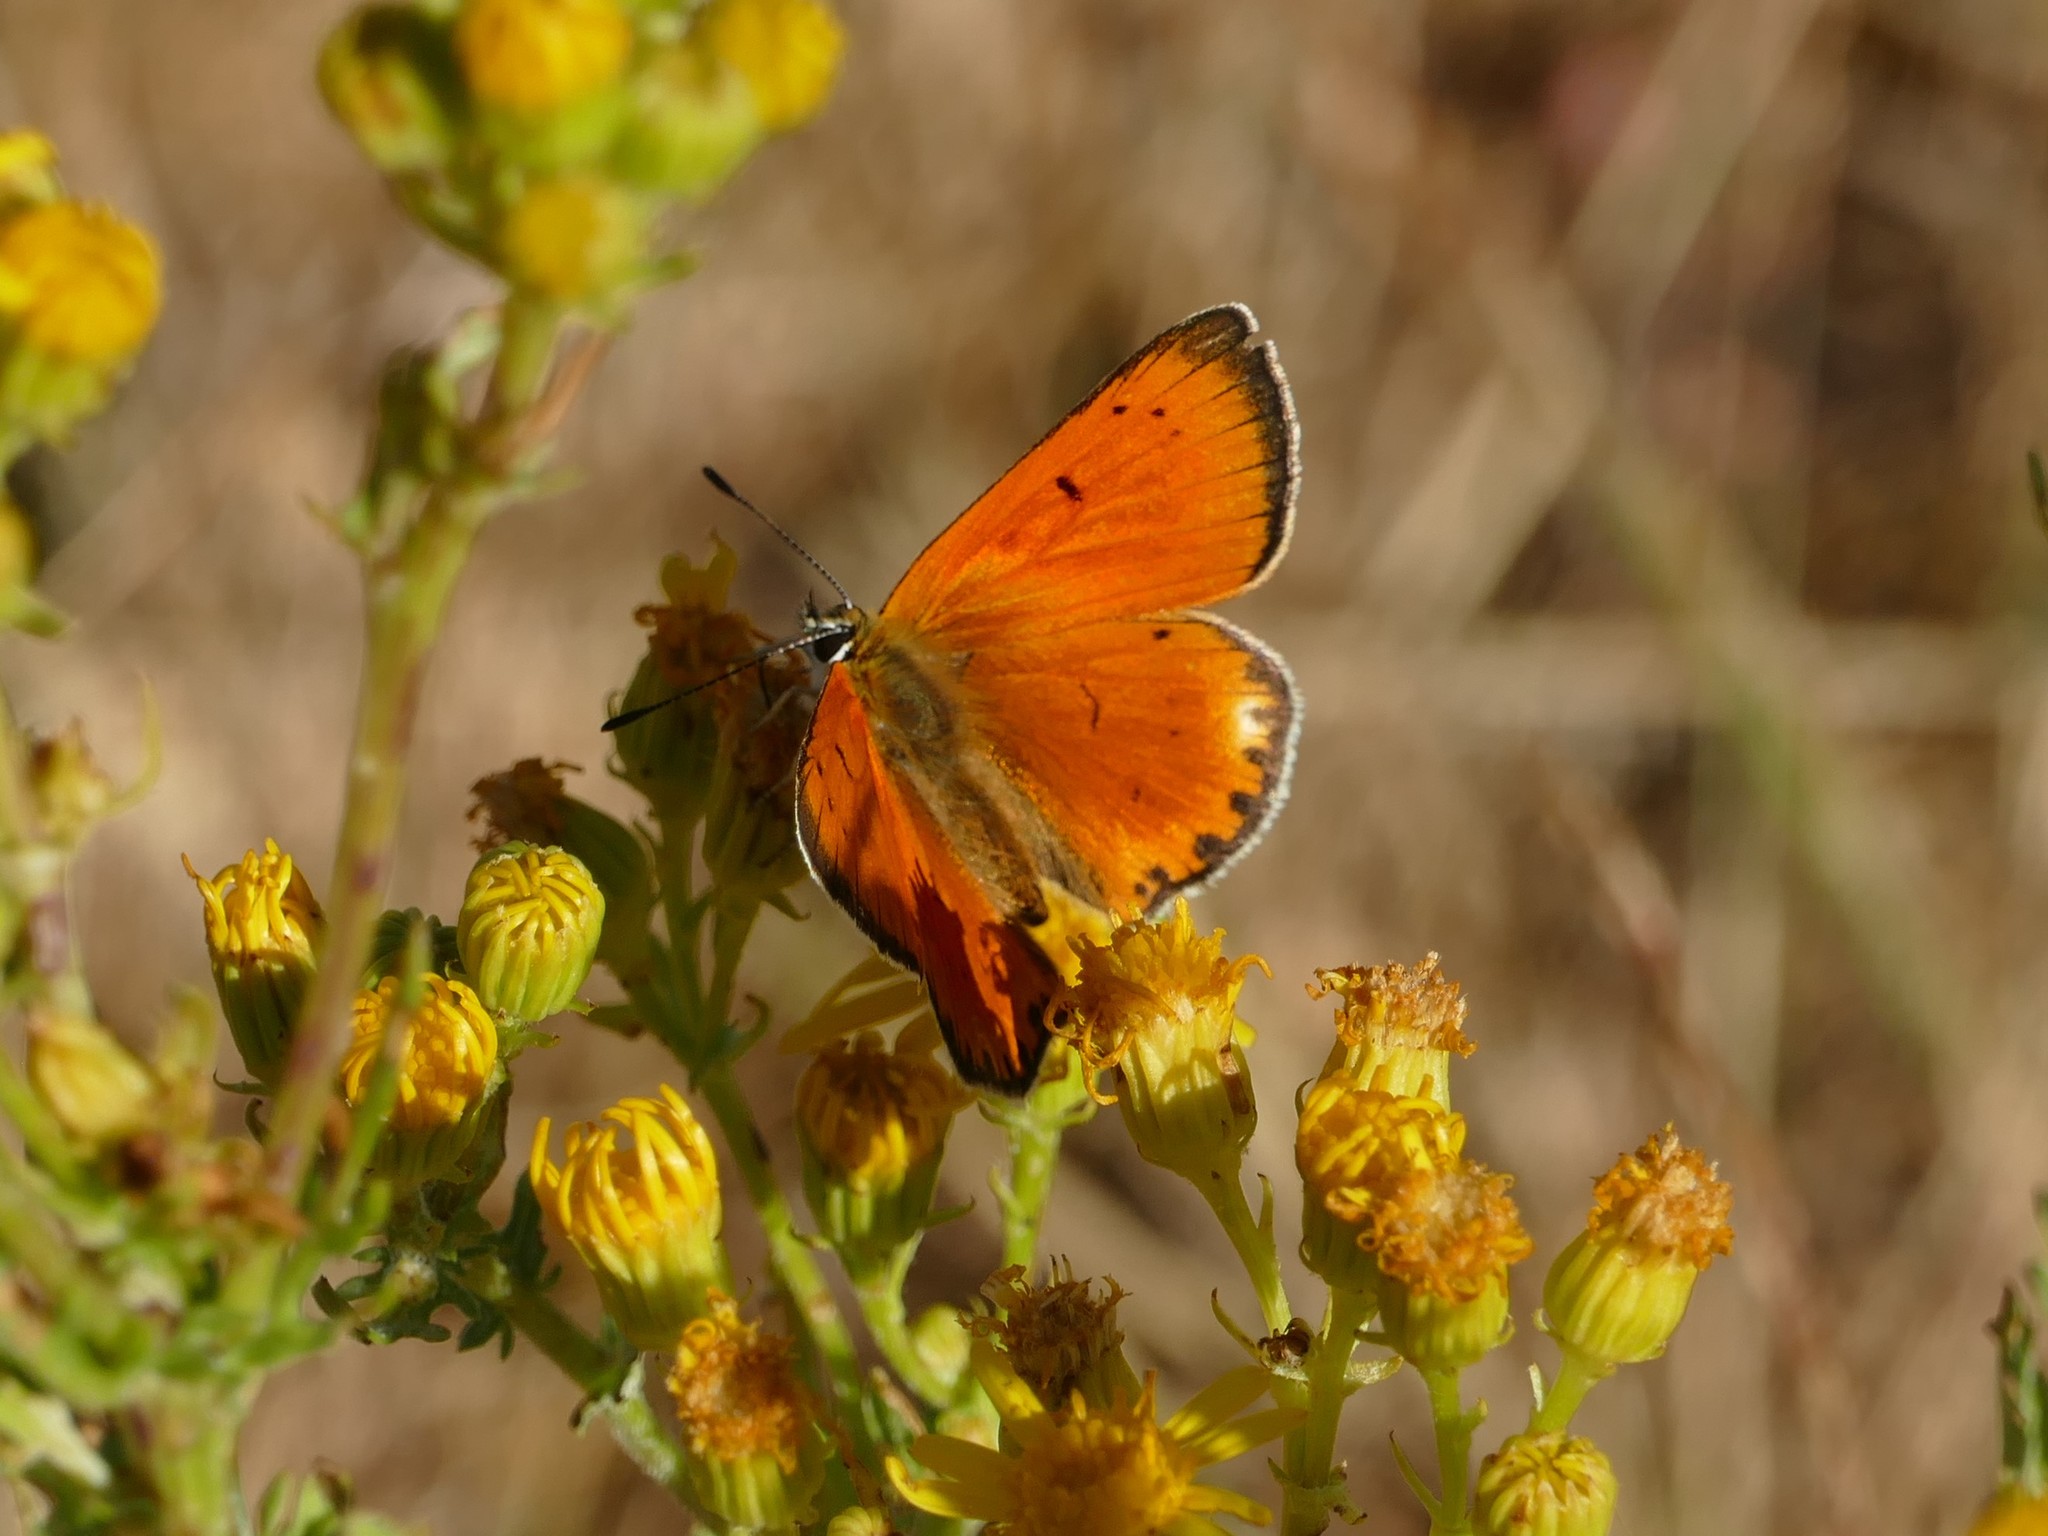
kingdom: Animalia
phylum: Arthropoda
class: Insecta
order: Lepidoptera
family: Lycaenidae
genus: Lycaena
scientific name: Lycaena virgaureae
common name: Scarce copper
